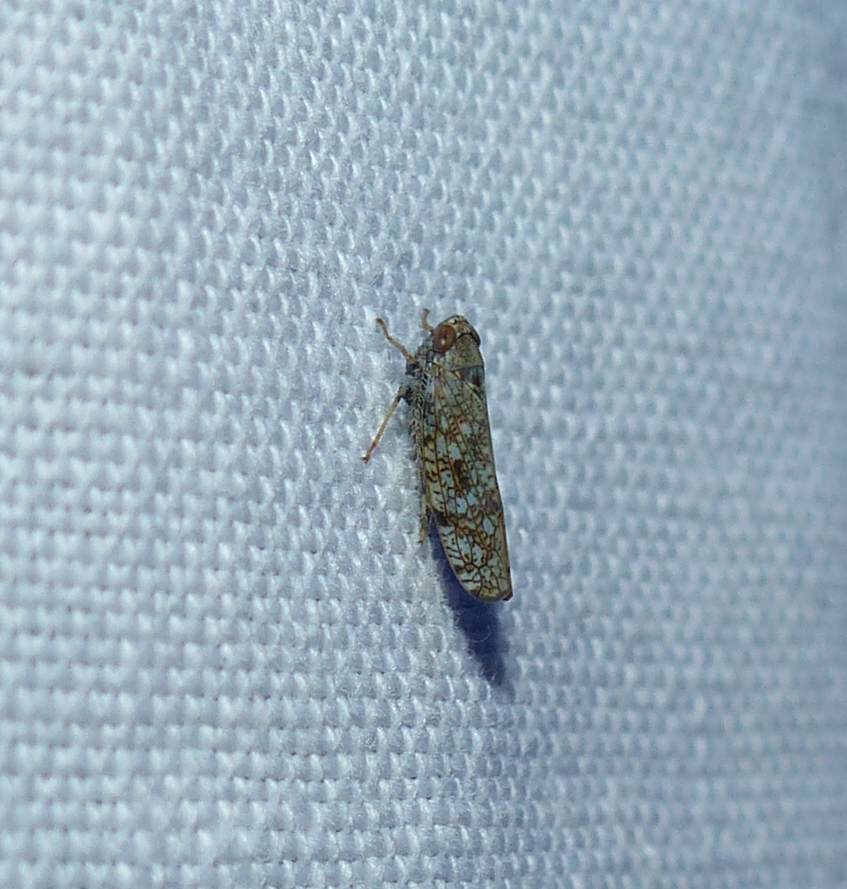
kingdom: Animalia
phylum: Arthropoda
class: Insecta
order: Hemiptera
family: Cicadellidae
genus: Orientus
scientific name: Orientus ishidae
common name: Japanese leafhopper
